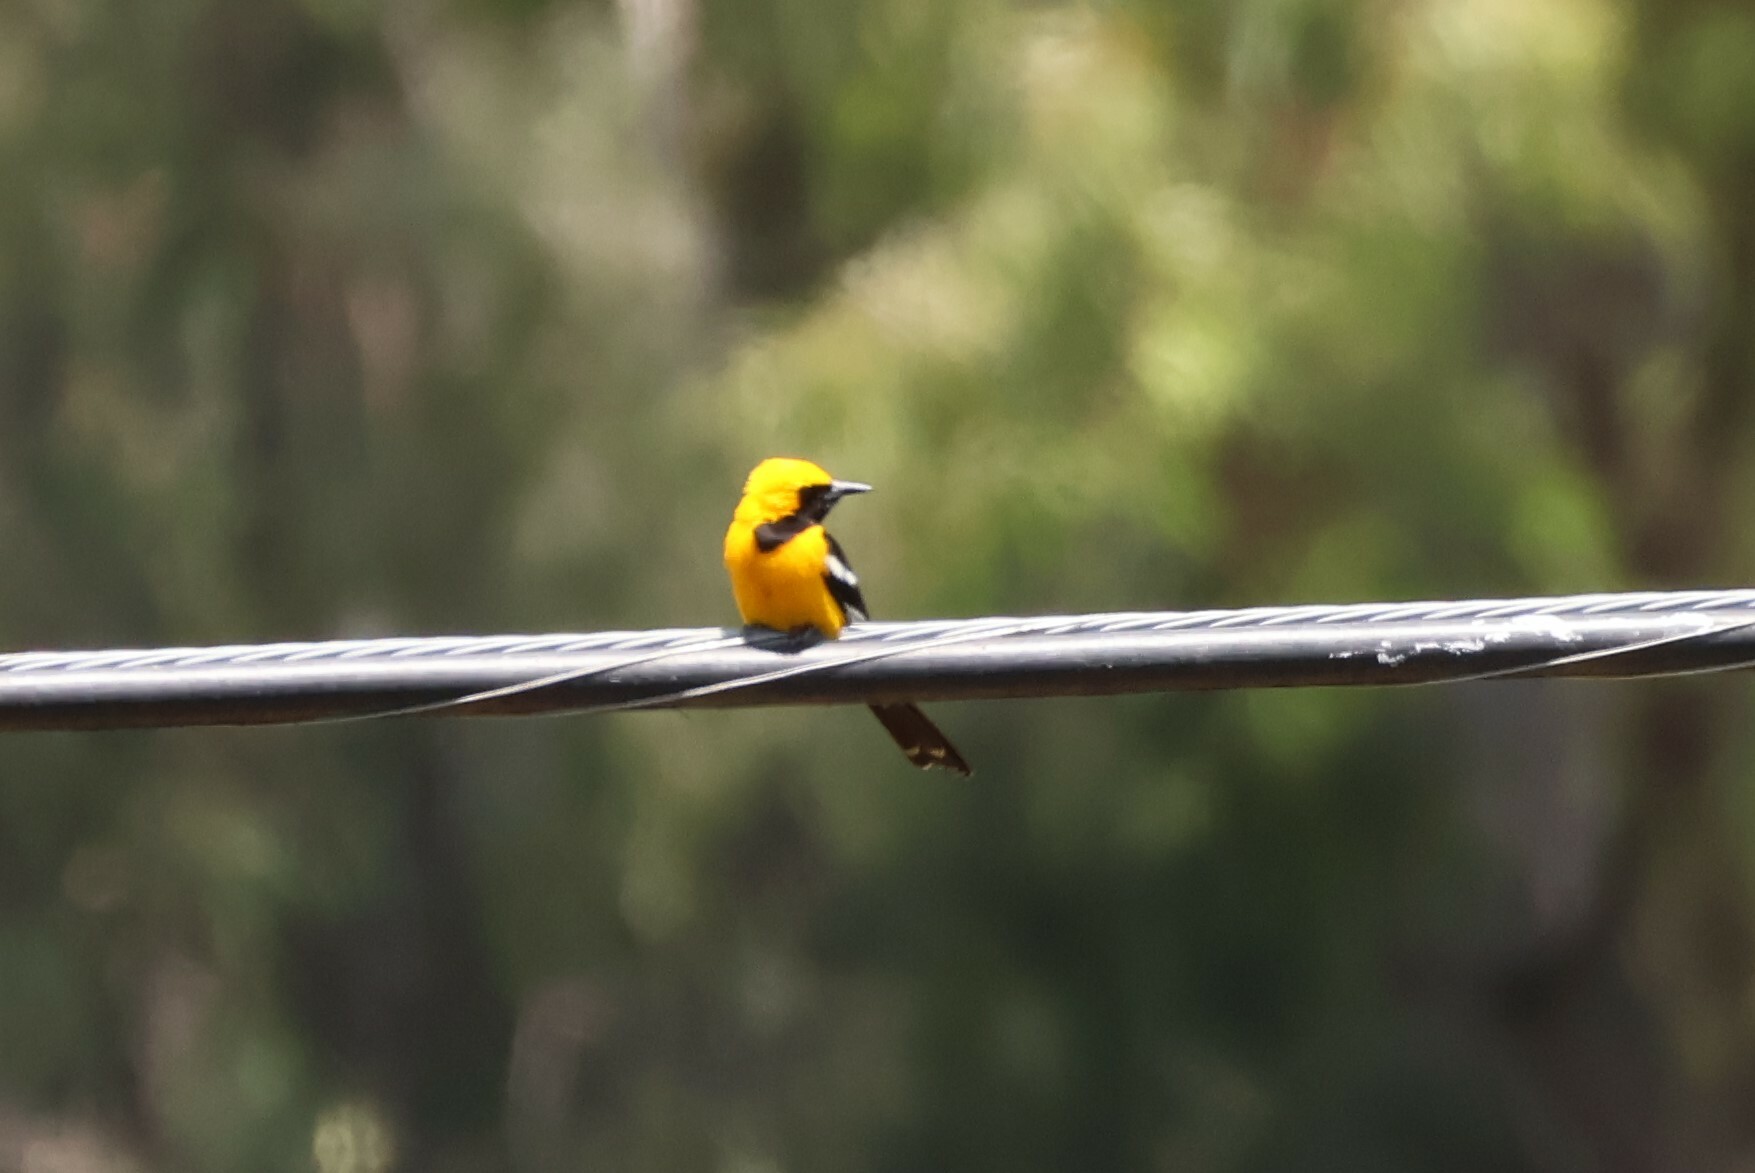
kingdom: Animalia
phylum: Chordata
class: Aves
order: Passeriformes
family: Icteridae
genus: Icterus
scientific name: Icterus cucullatus
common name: Hooded oriole
